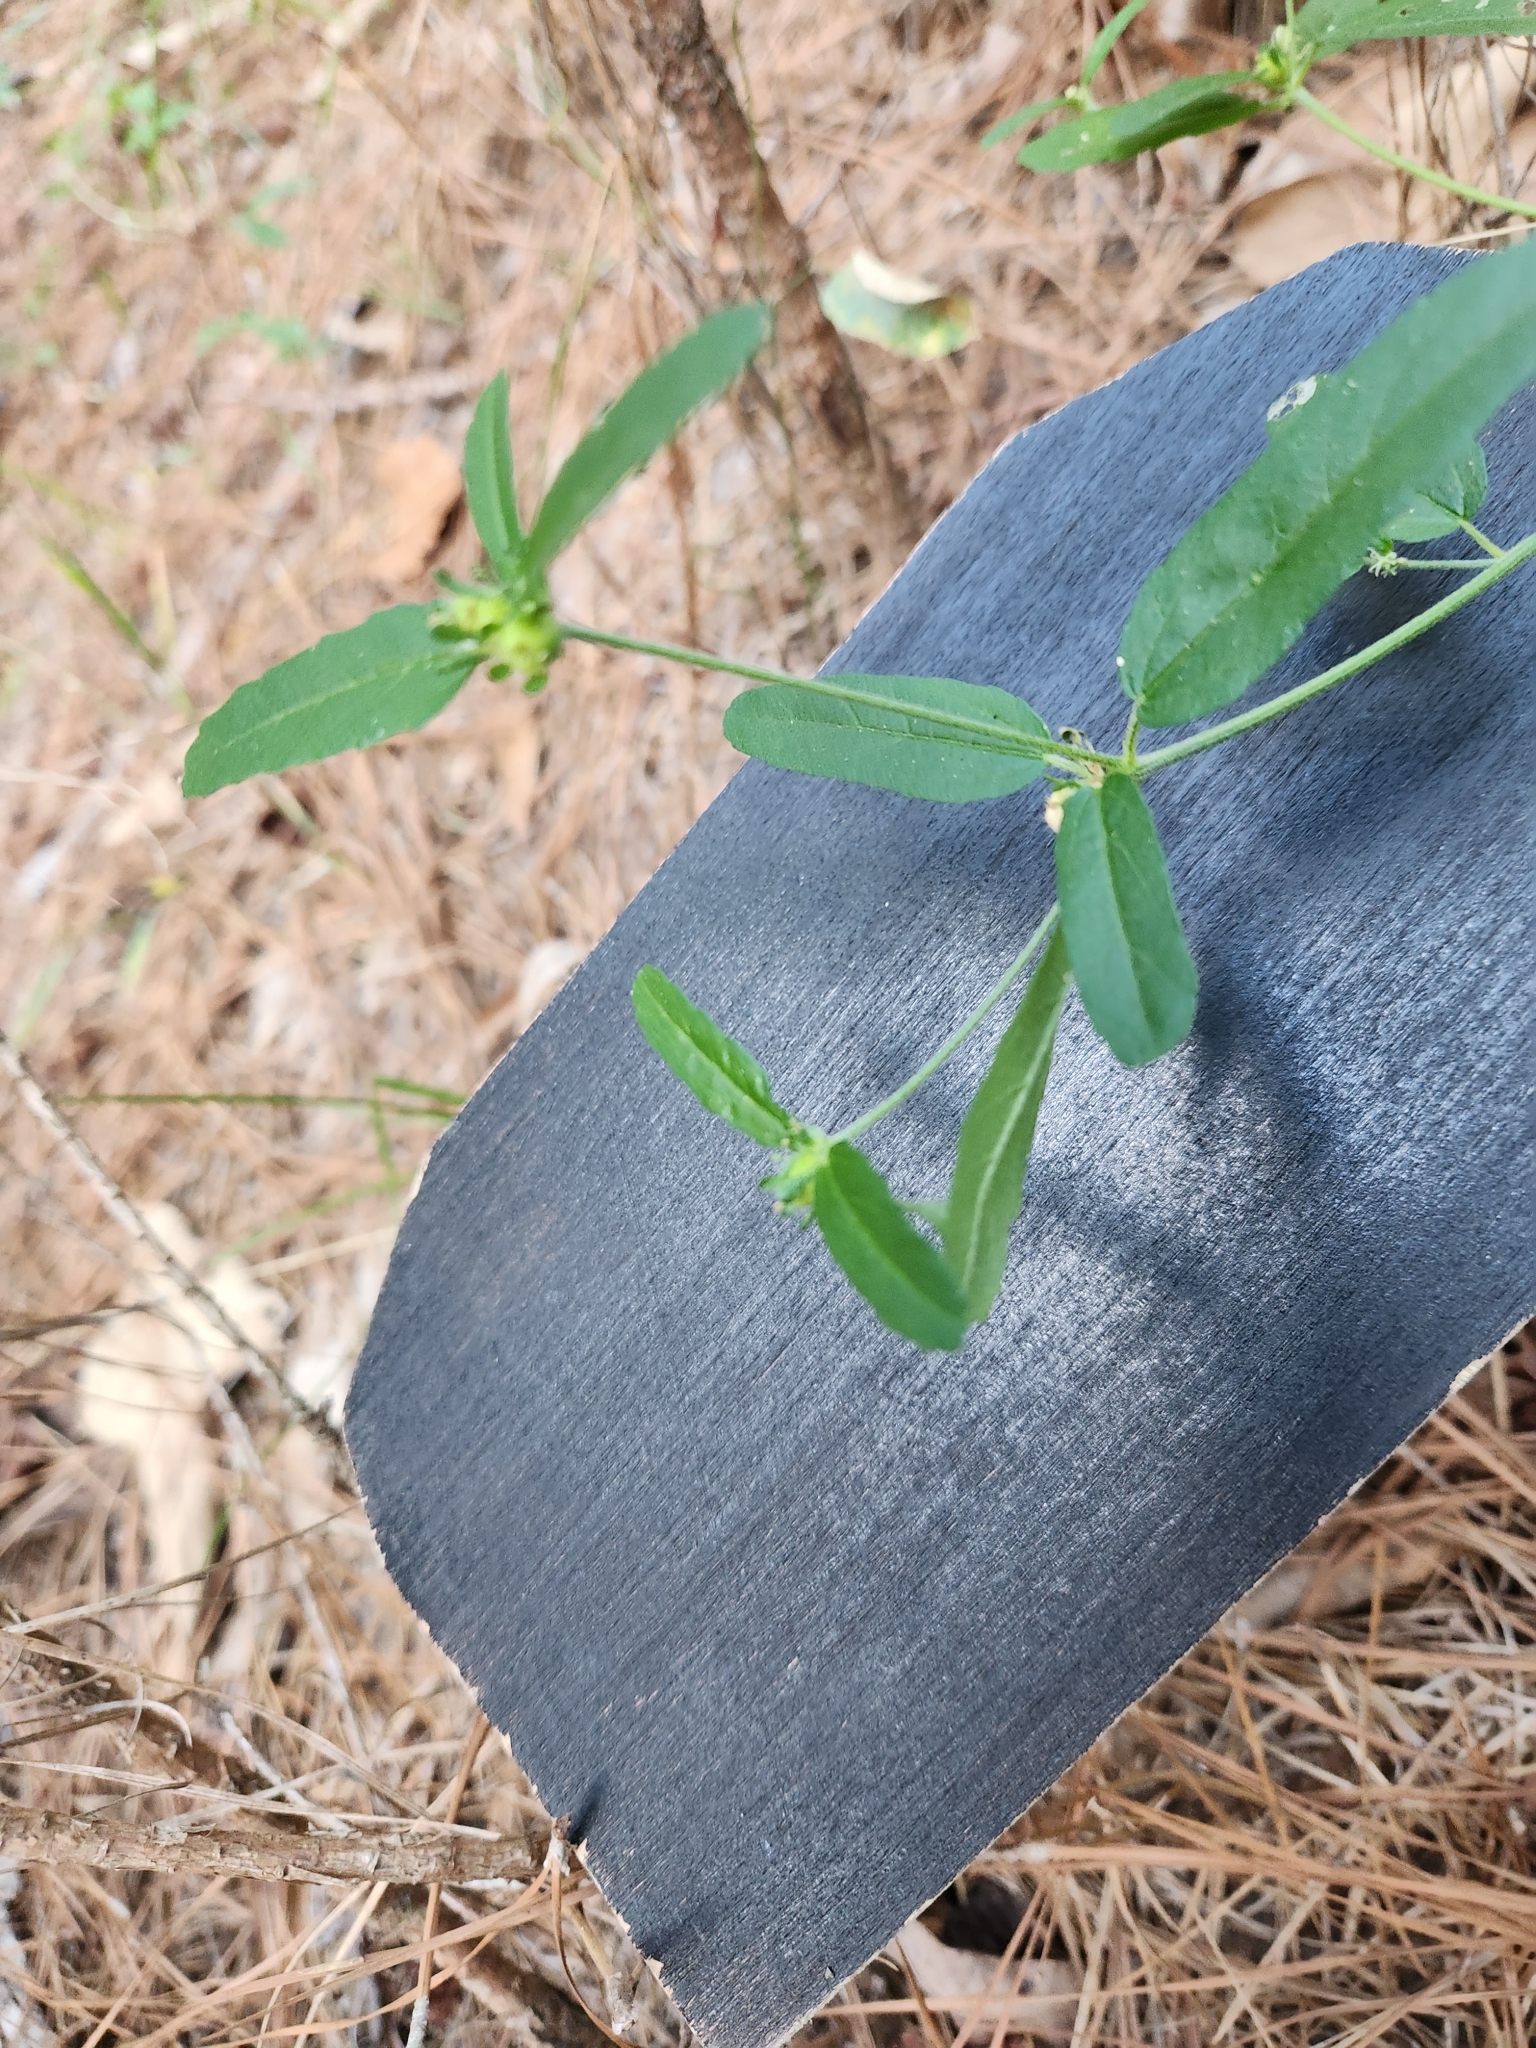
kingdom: Plantae
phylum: Tracheophyta
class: Magnoliopsida
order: Malpighiales
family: Euphorbiaceae
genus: Croton
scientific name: Croton glandulosus
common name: Tropic croton
